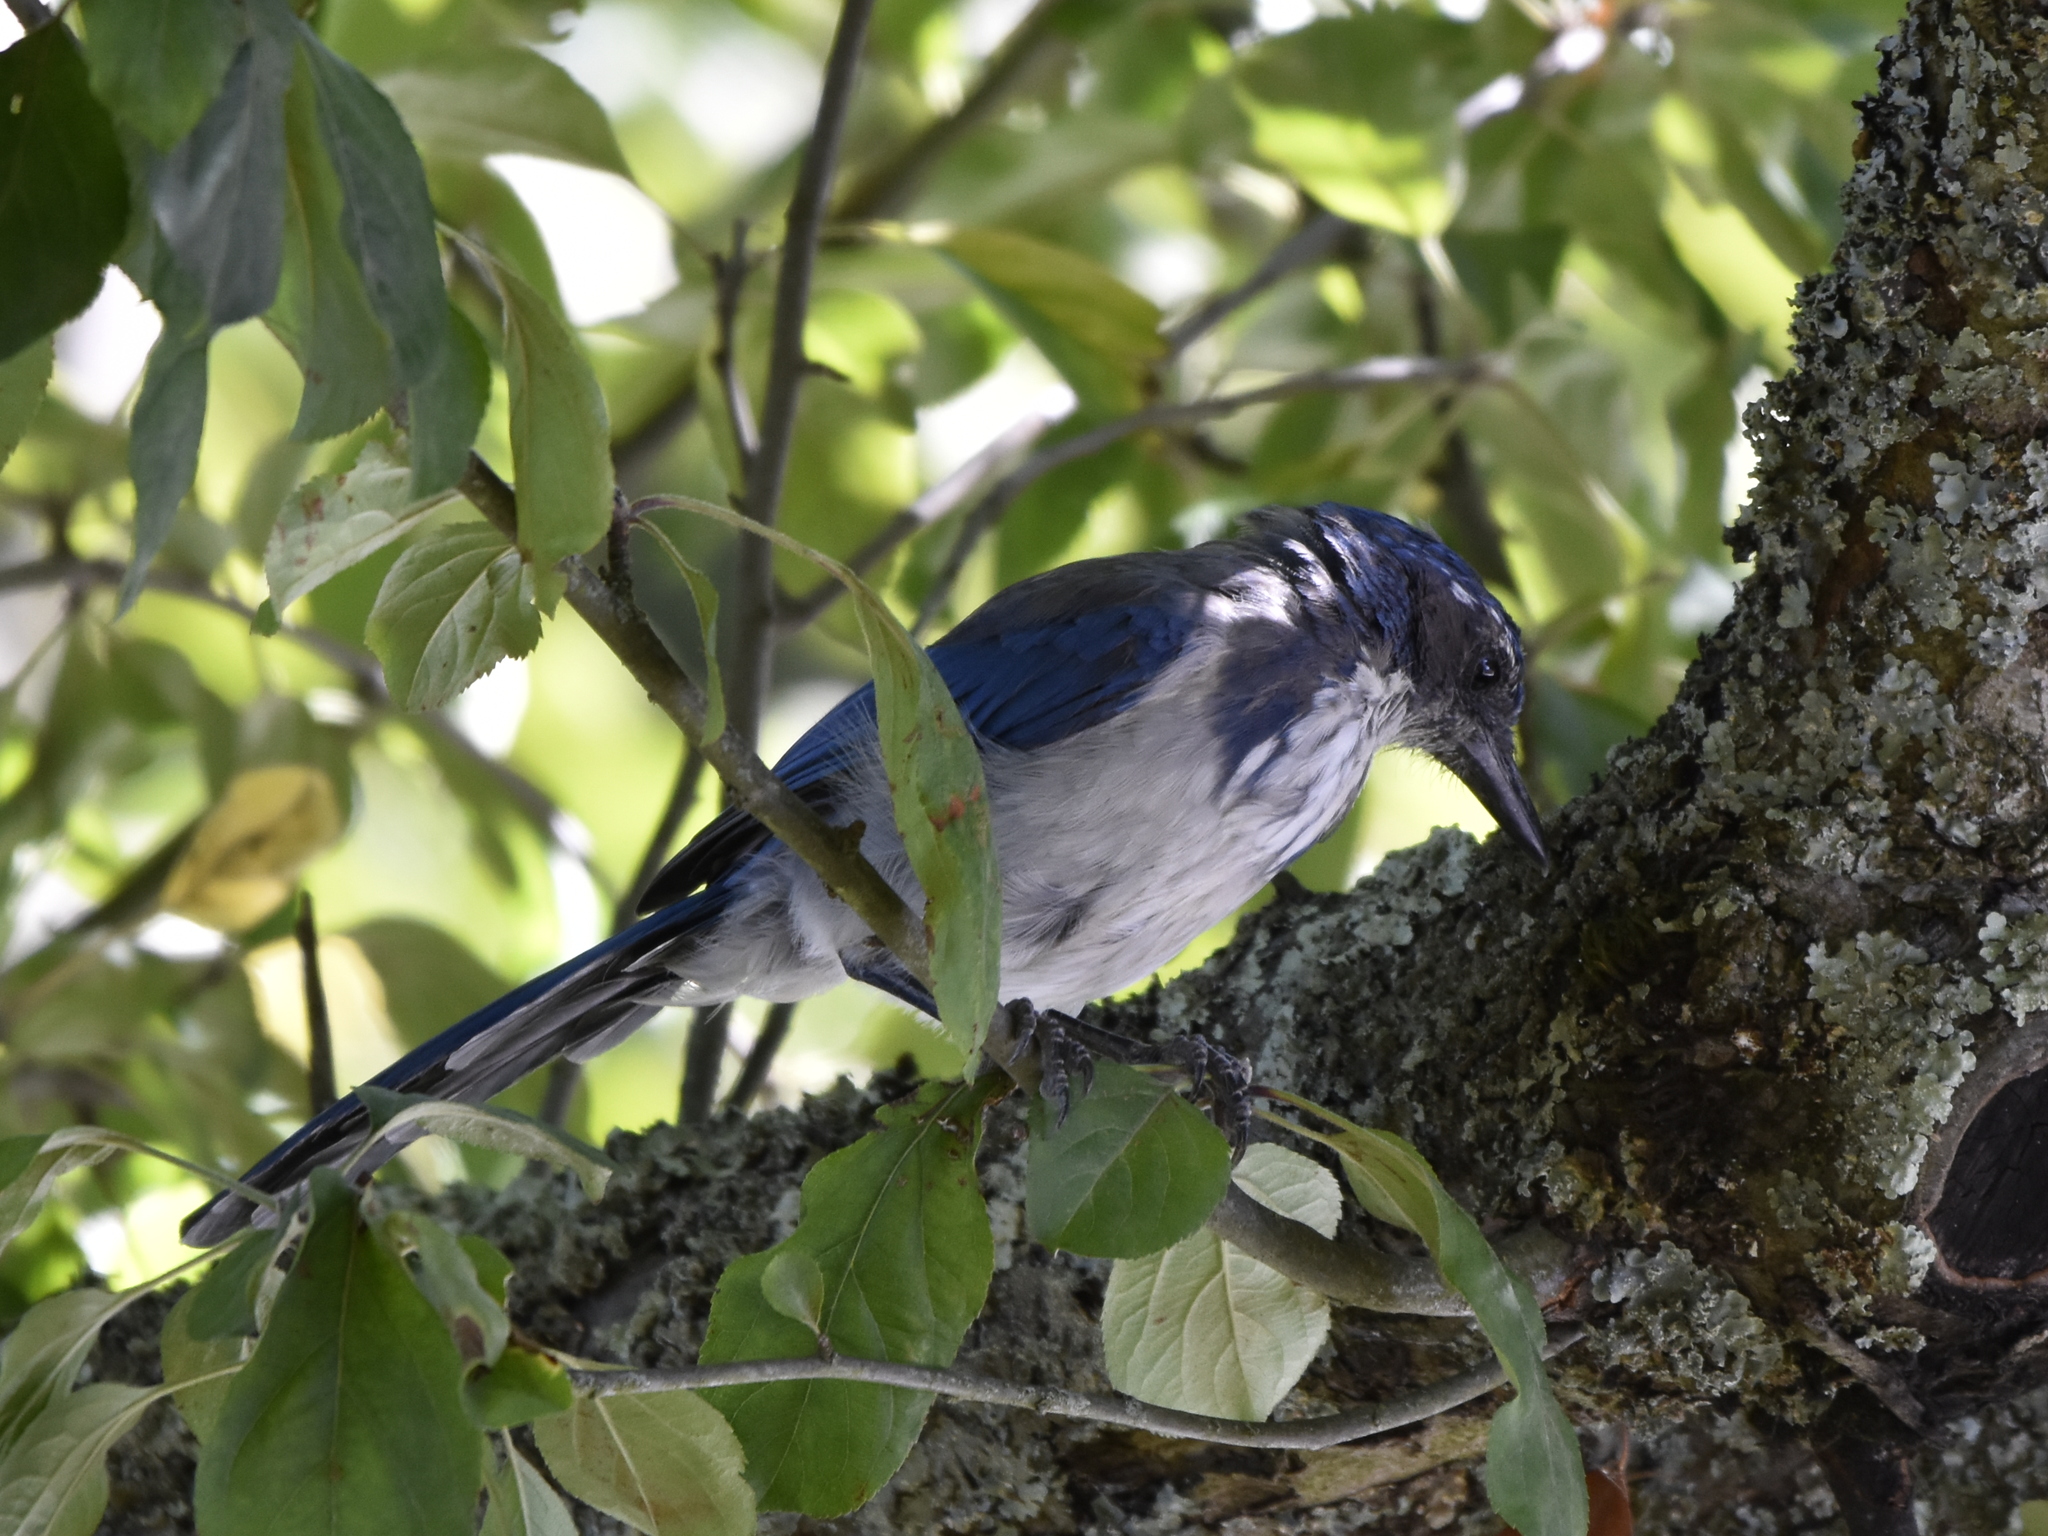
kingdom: Animalia
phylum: Chordata
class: Aves
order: Passeriformes
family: Corvidae
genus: Aphelocoma
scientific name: Aphelocoma californica
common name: California scrub-jay
